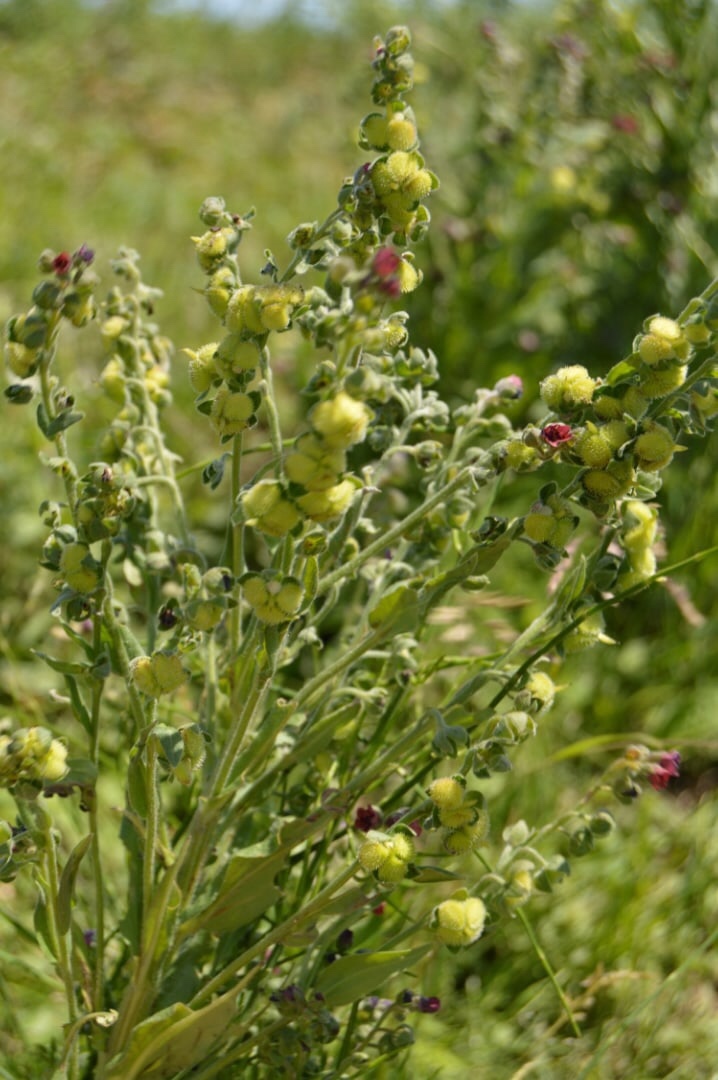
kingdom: Plantae
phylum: Tracheophyta
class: Magnoliopsida
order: Boraginales
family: Boraginaceae
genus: Cynoglossum
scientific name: Cynoglossum officinale
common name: Hound's-tongue
